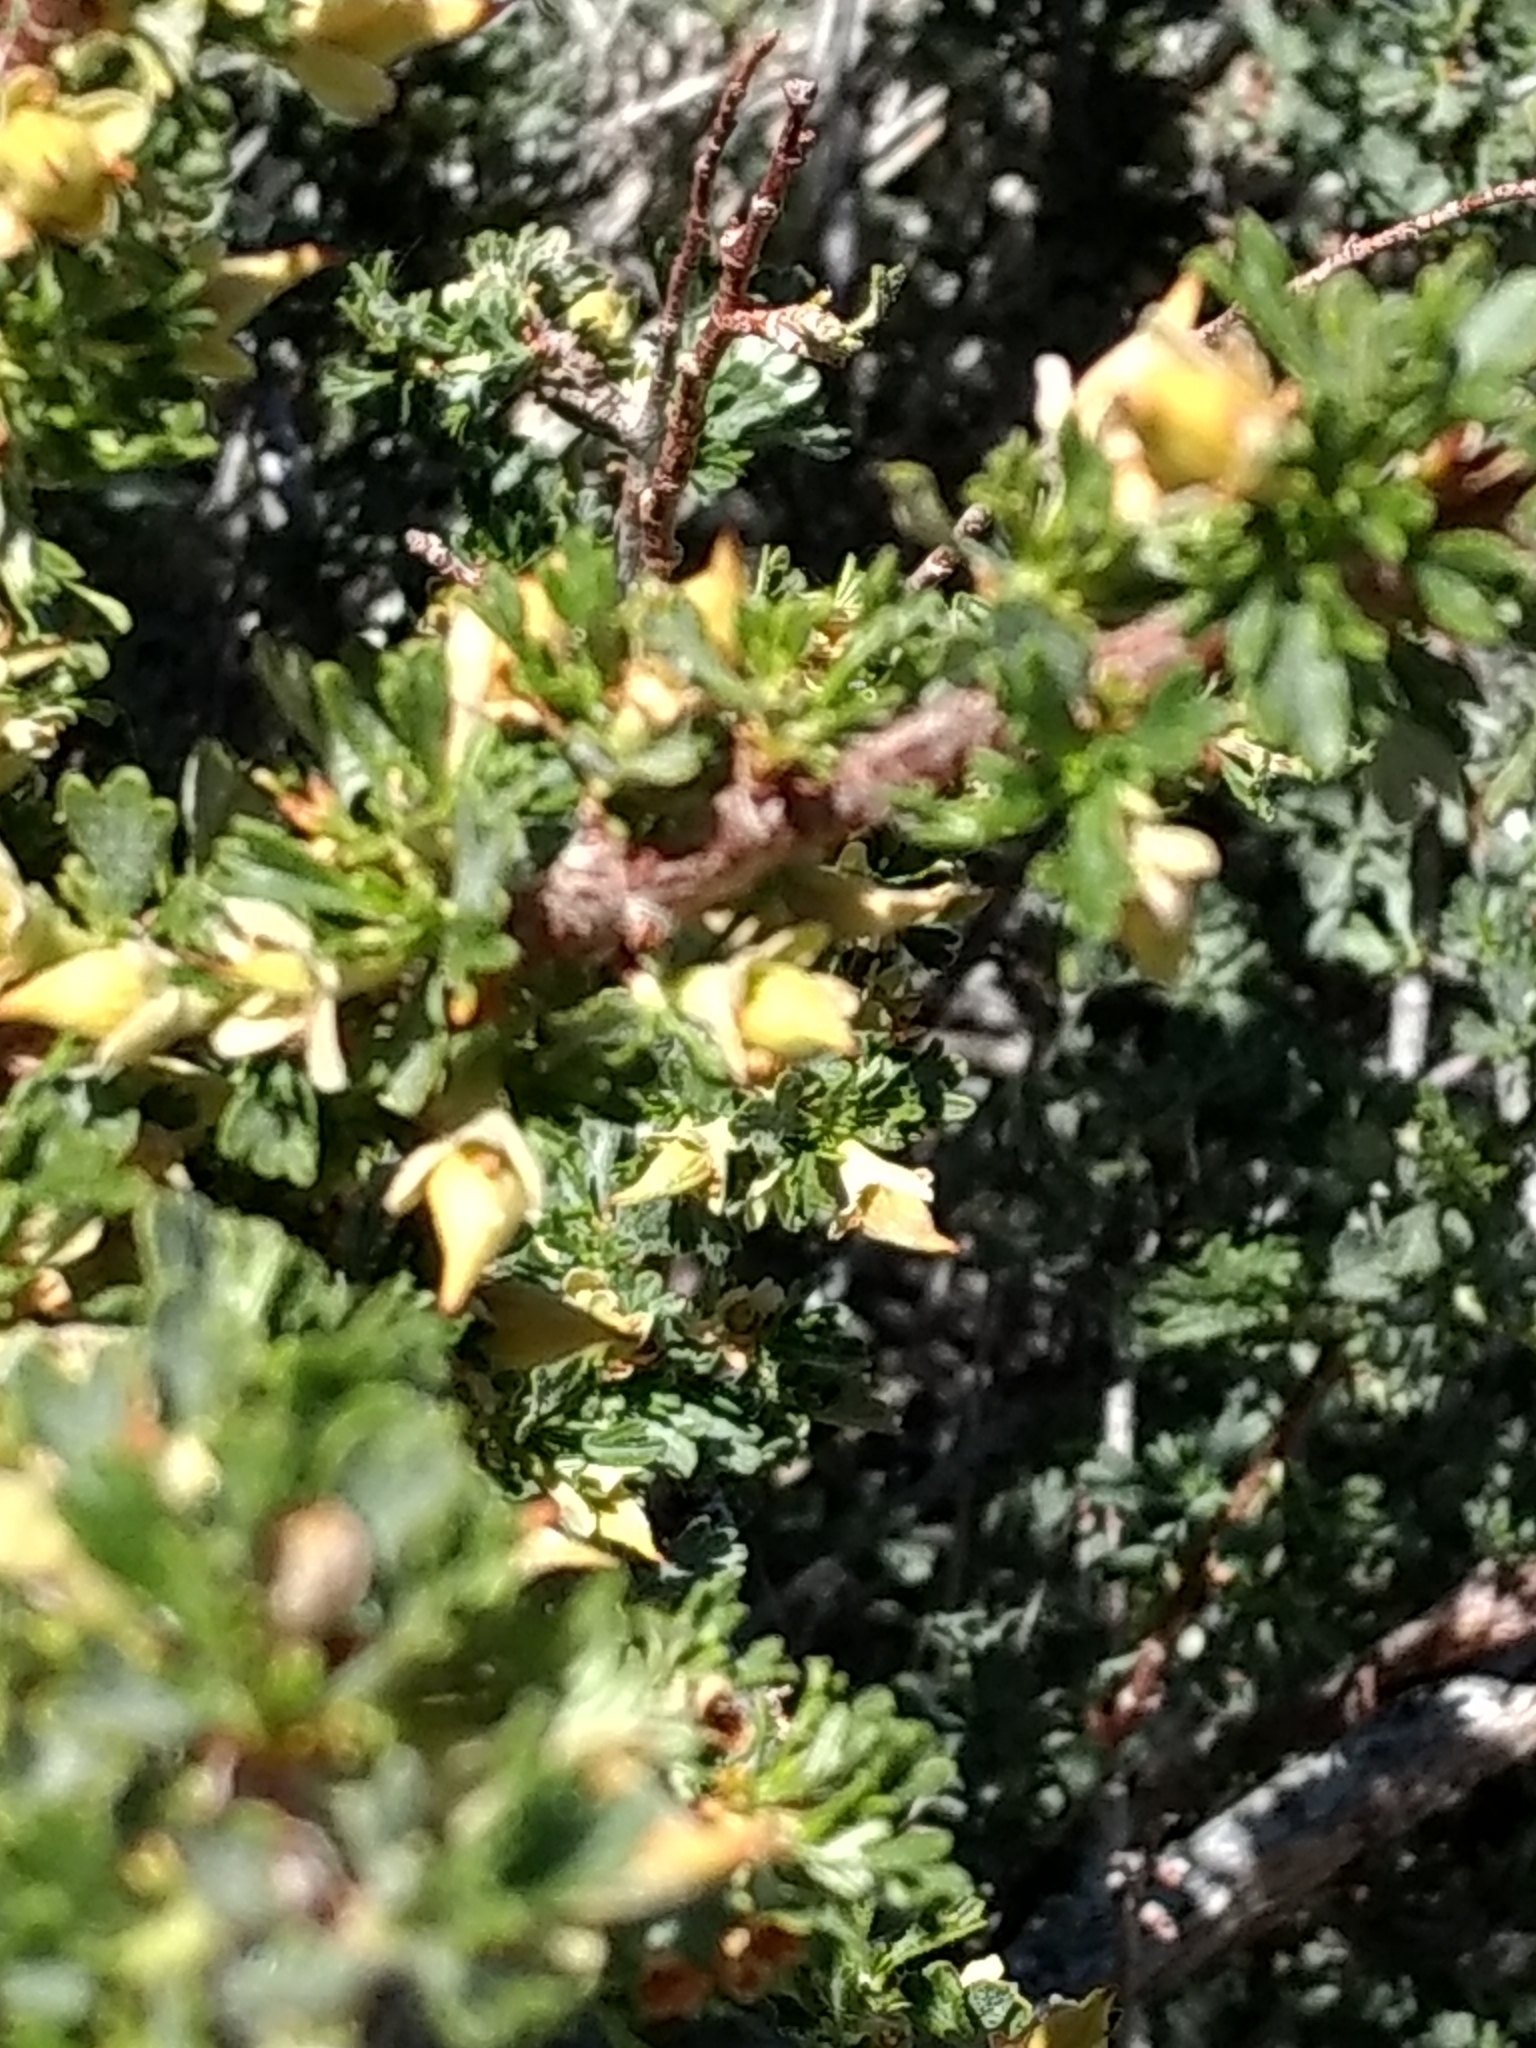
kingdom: Plantae
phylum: Tracheophyta
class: Magnoliopsida
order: Rosales
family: Rosaceae
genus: Purshia
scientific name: Purshia tridentata
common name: Antelope bitterbrush
